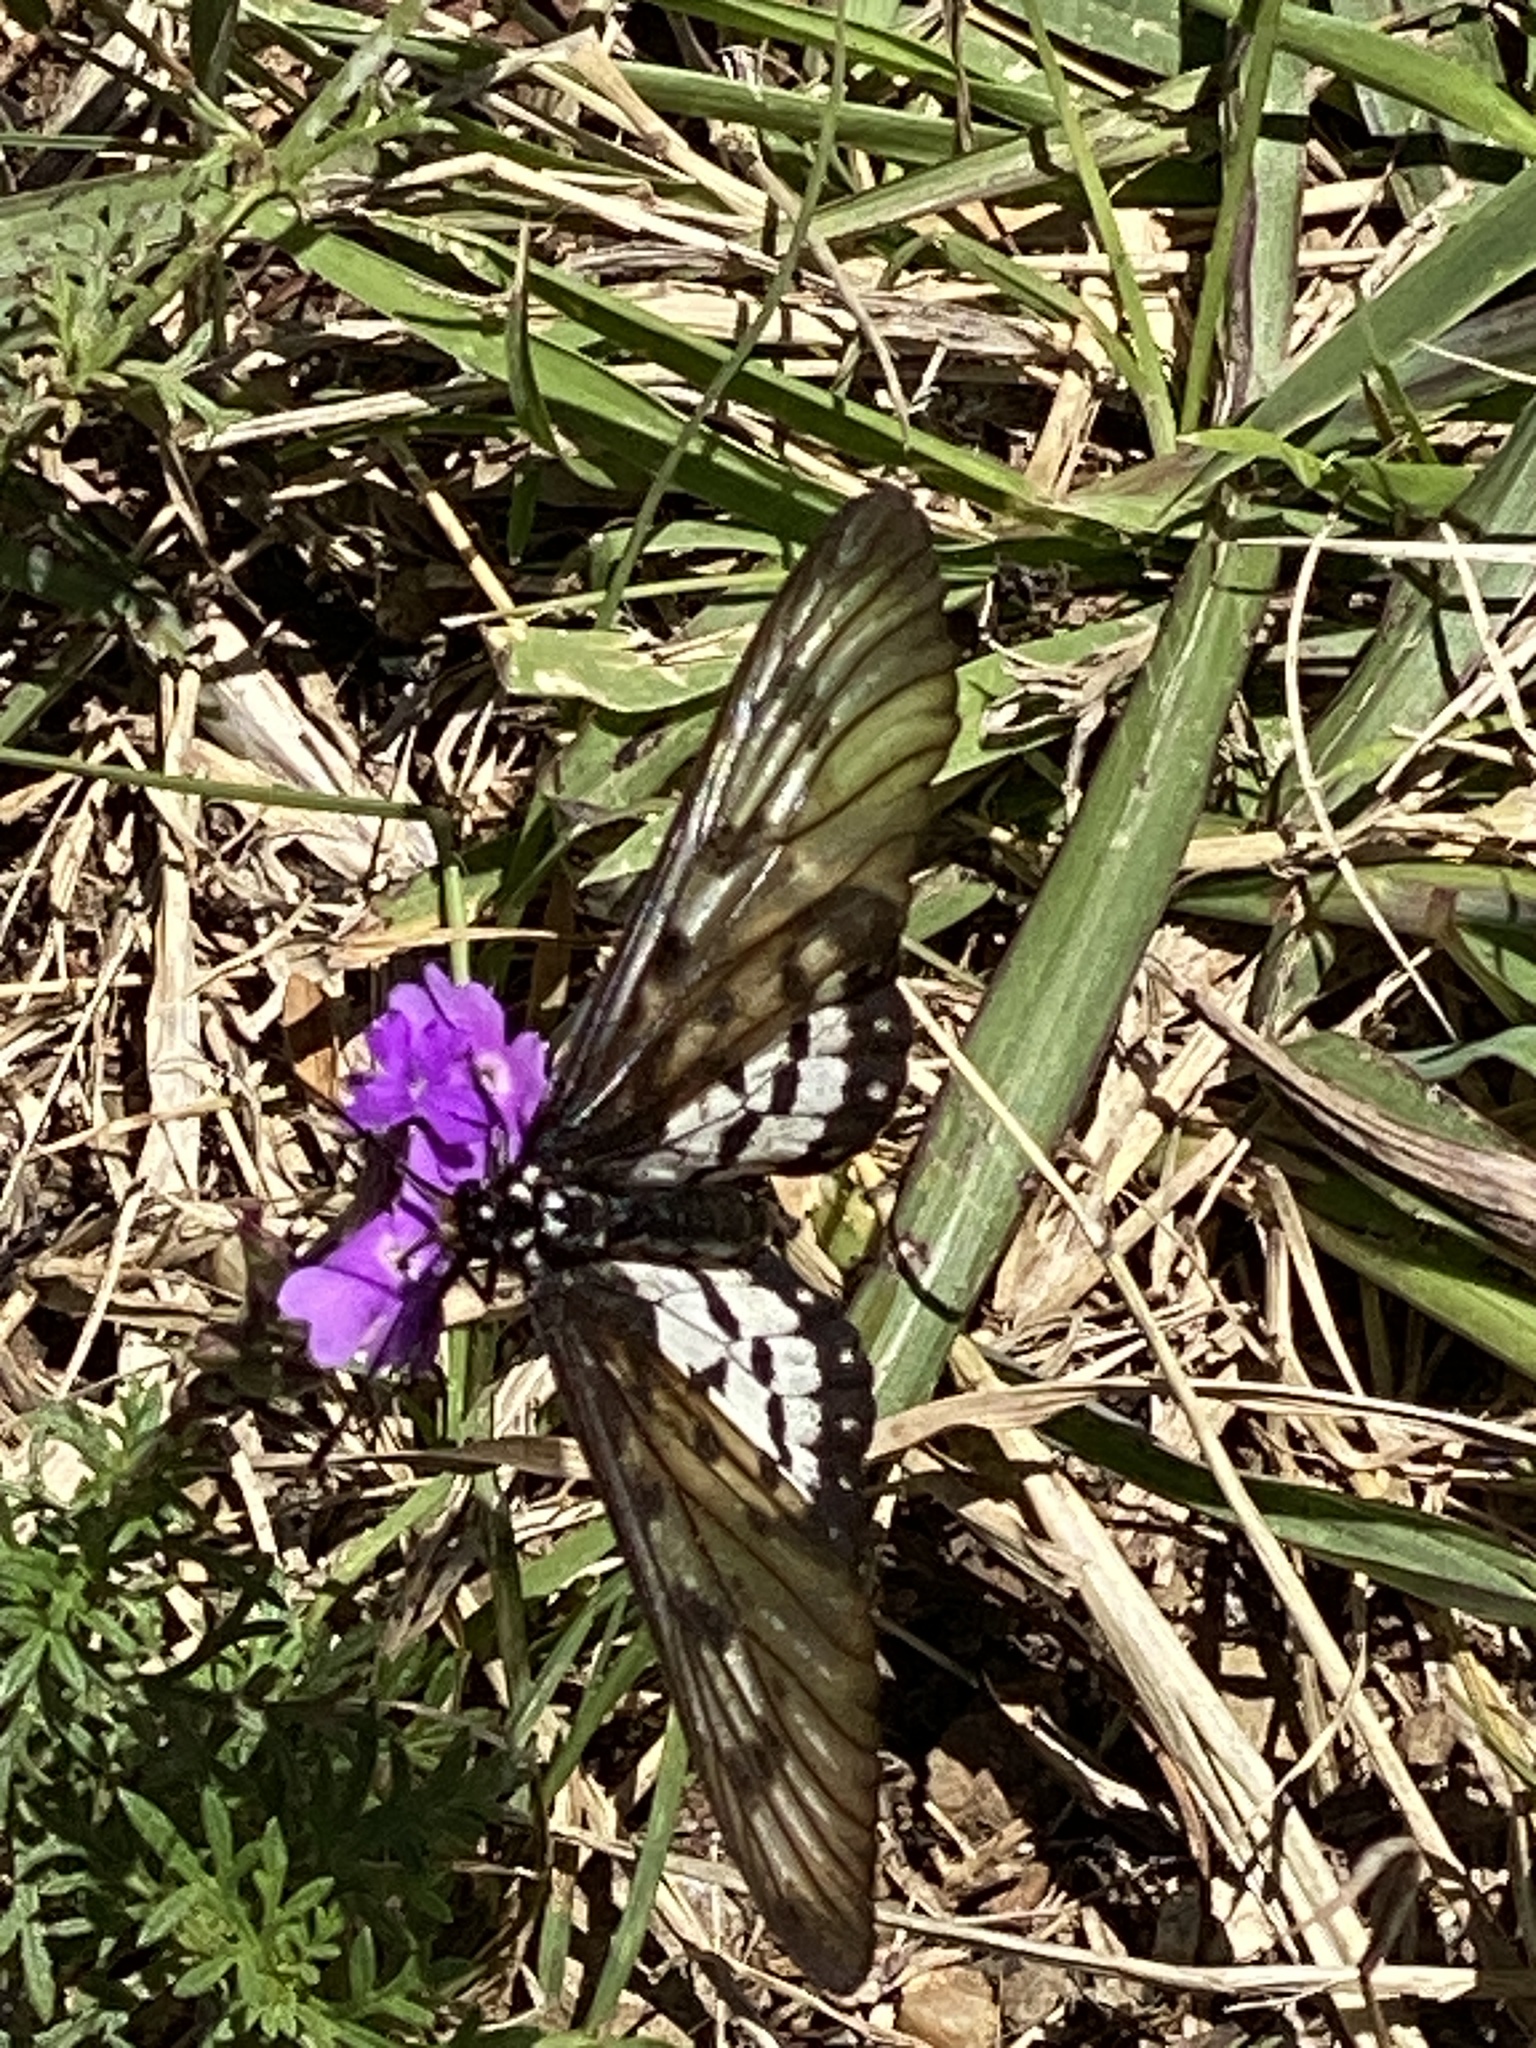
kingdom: Animalia
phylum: Arthropoda
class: Insecta
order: Lepidoptera
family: Nymphalidae
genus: Acraea
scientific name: Acraea andromacha
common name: Glasswing
